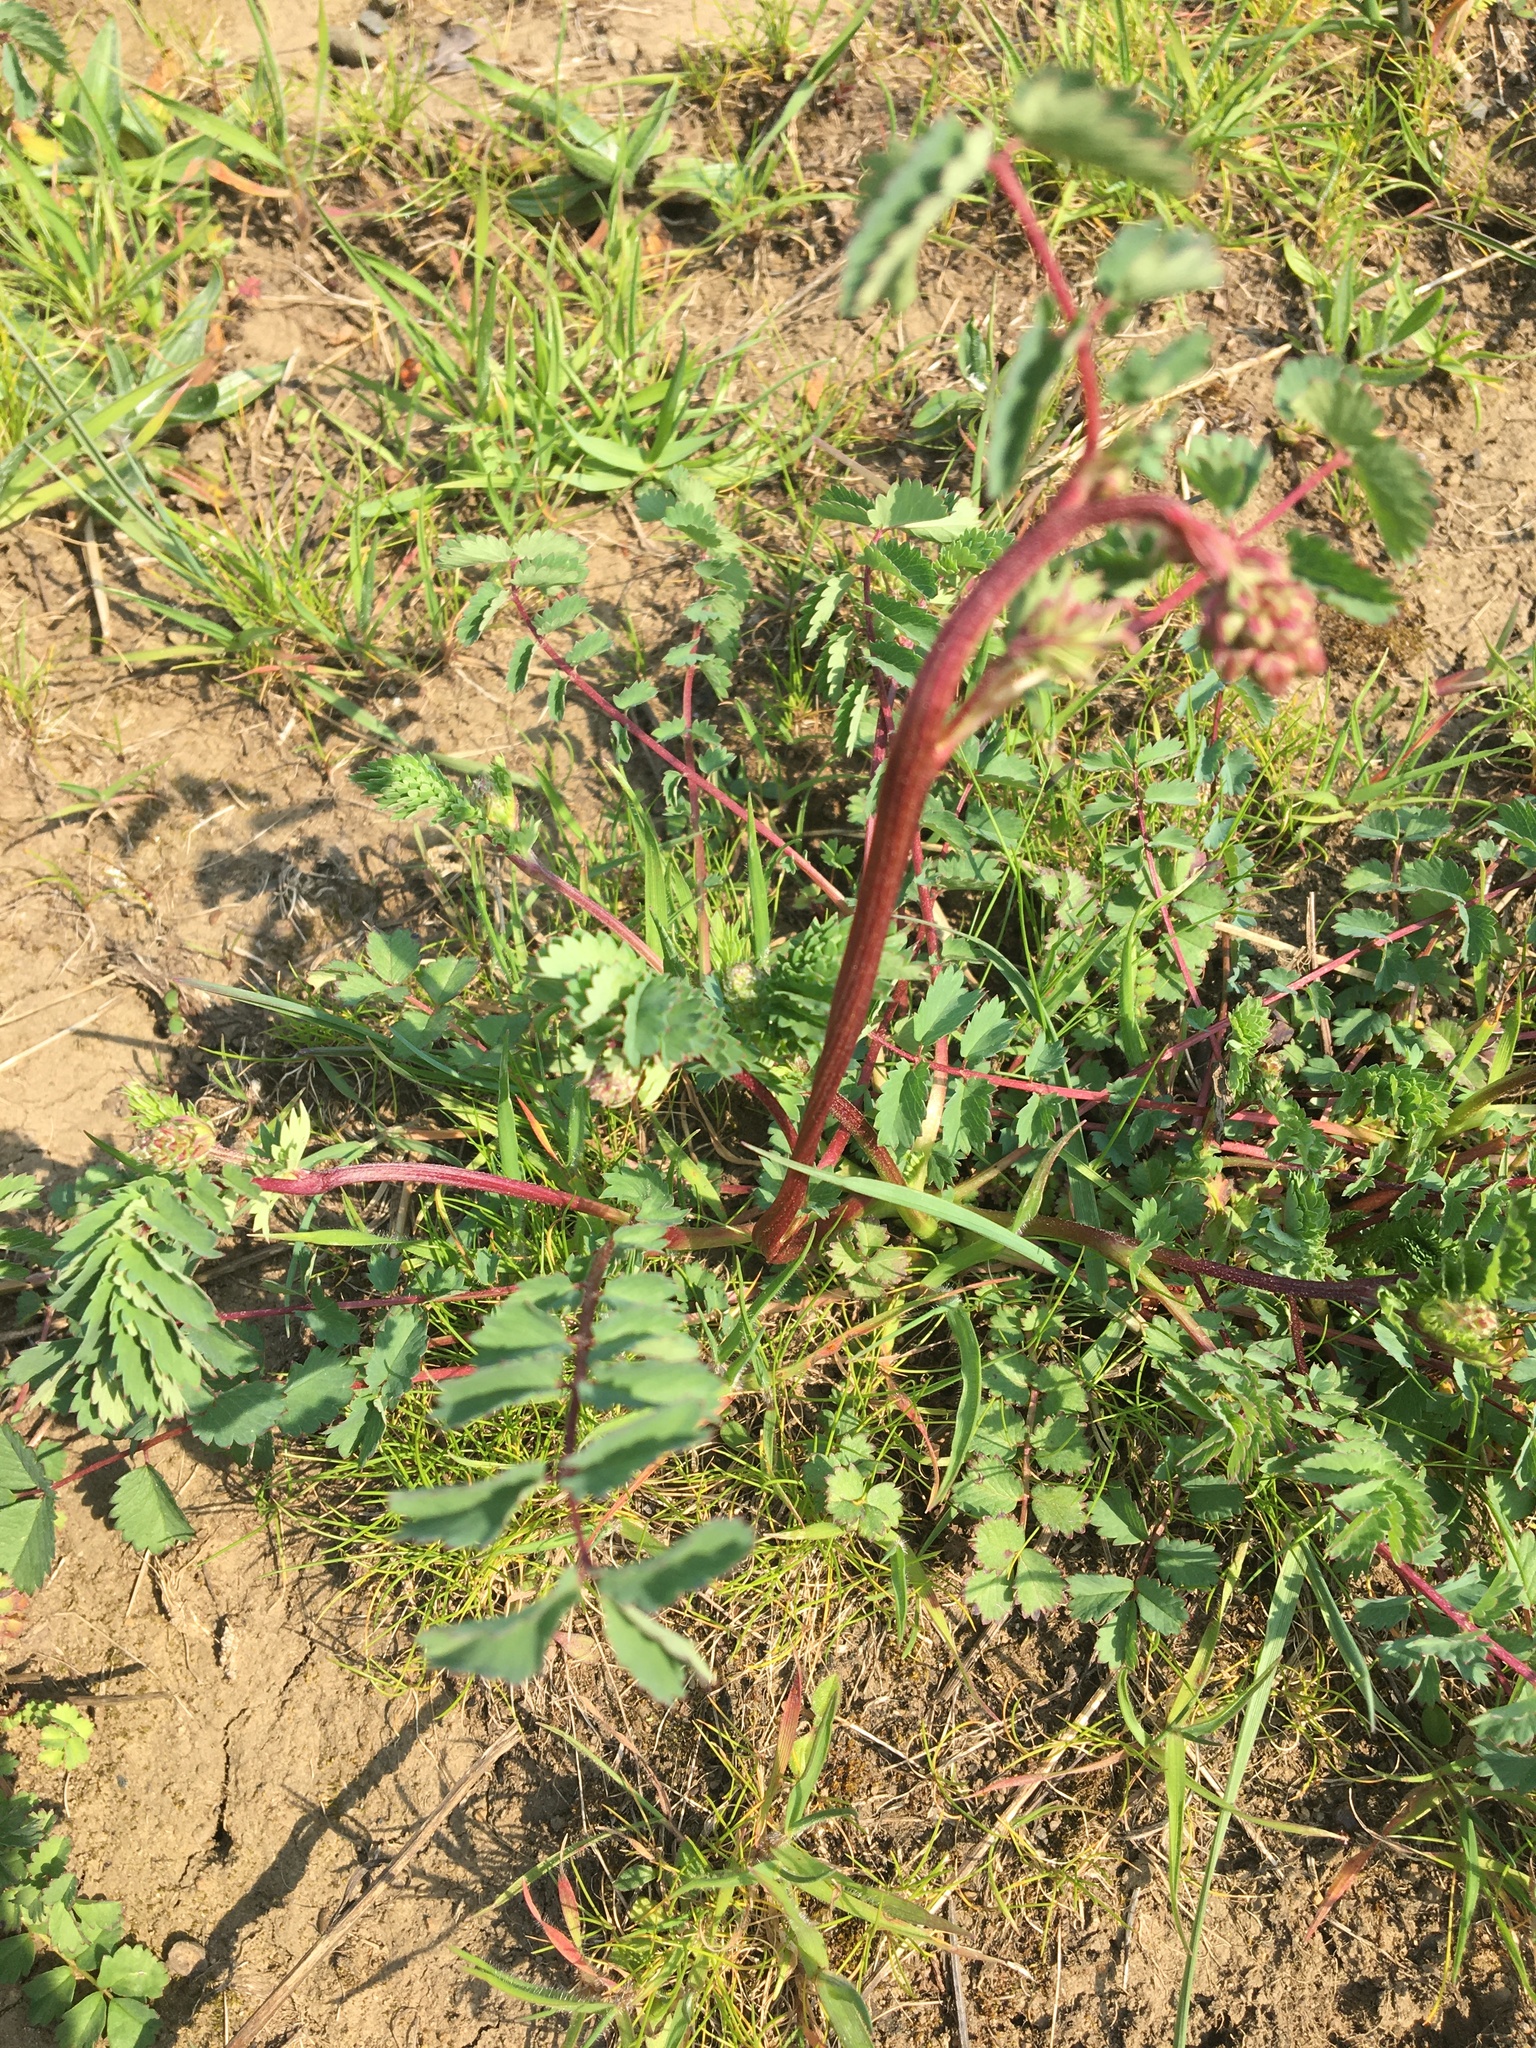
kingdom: Plantae
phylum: Tracheophyta
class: Magnoliopsida
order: Rosales
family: Rosaceae
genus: Poterium
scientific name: Poterium sanguisorba
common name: Salad burnet
